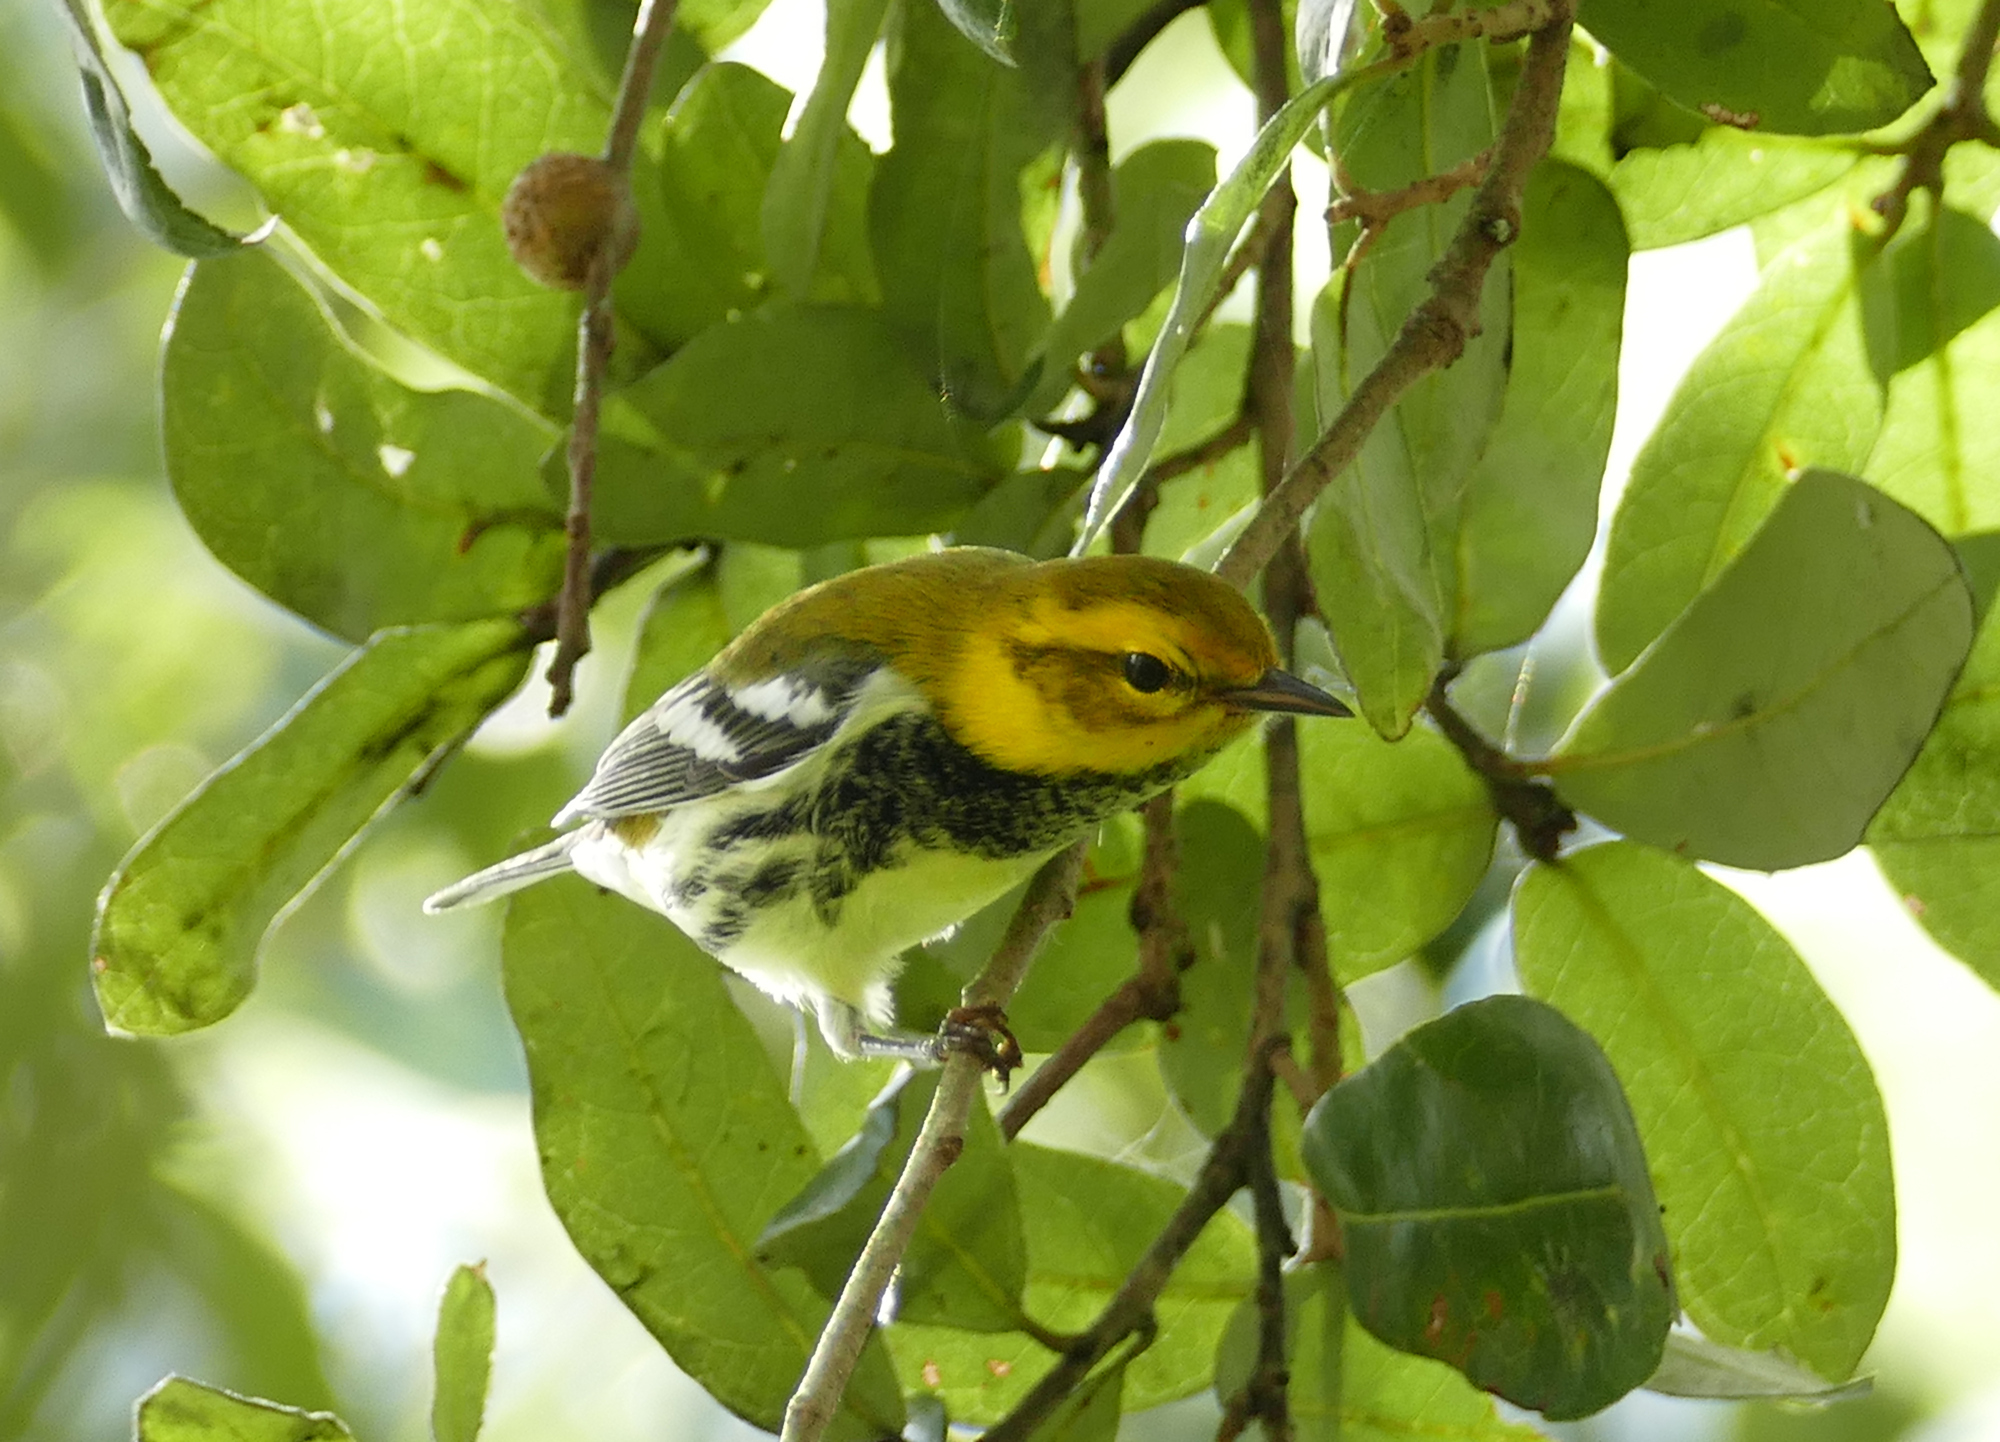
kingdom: Animalia
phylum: Chordata
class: Aves
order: Passeriformes
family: Parulidae
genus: Setophaga
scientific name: Setophaga virens
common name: Black-throated green warbler
